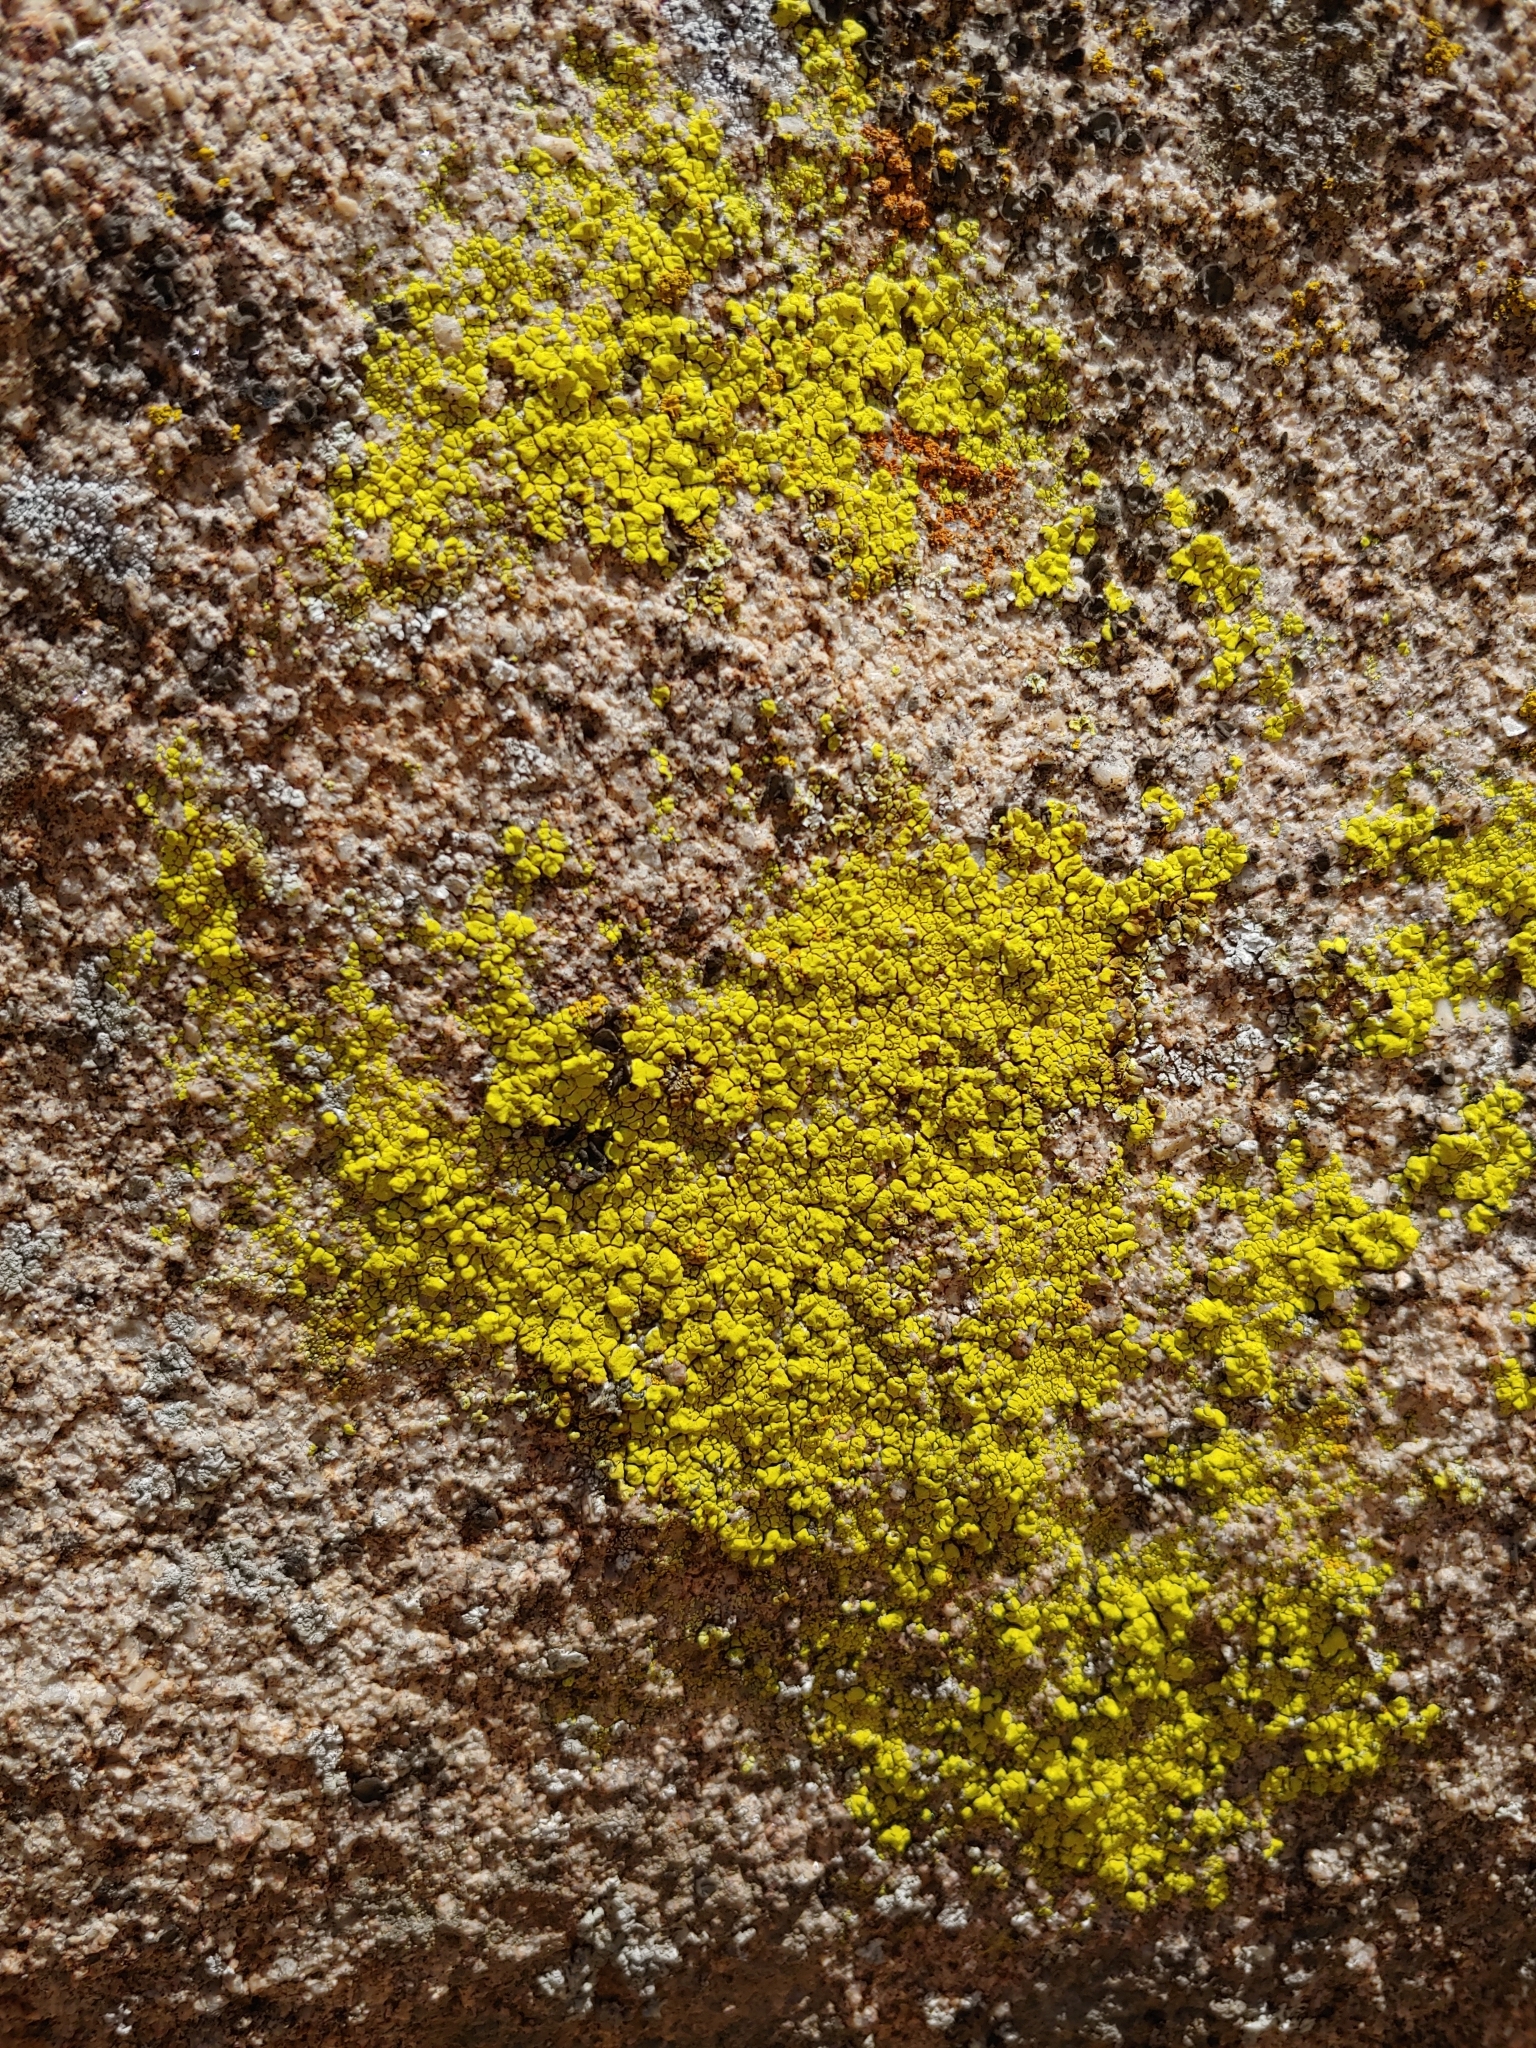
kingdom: Fungi
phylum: Ascomycota
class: Lecanoromycetes
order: Acarosporales
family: Acarosporaceae
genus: Acarospora
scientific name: Acarospora socialis
